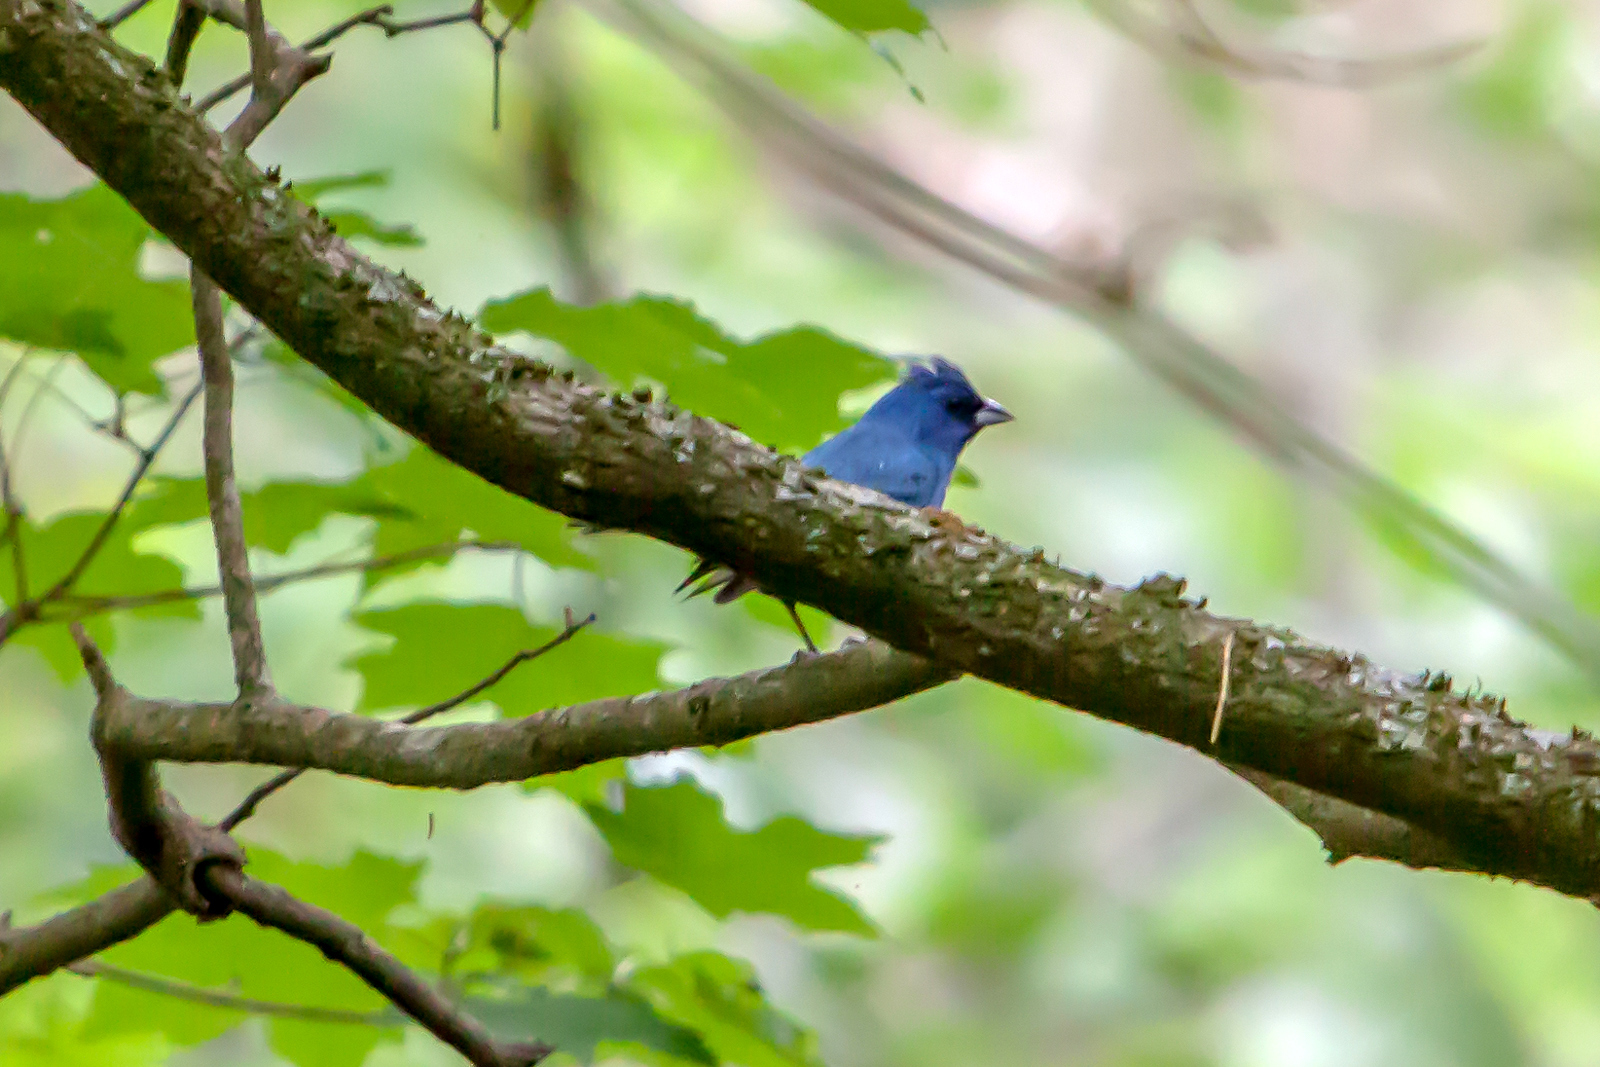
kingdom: Animalia
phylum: Chordata
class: Aves
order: Passeriformes
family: Cardinalidae
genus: Passerina
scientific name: Passerina cyanea
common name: Indigo bunting
